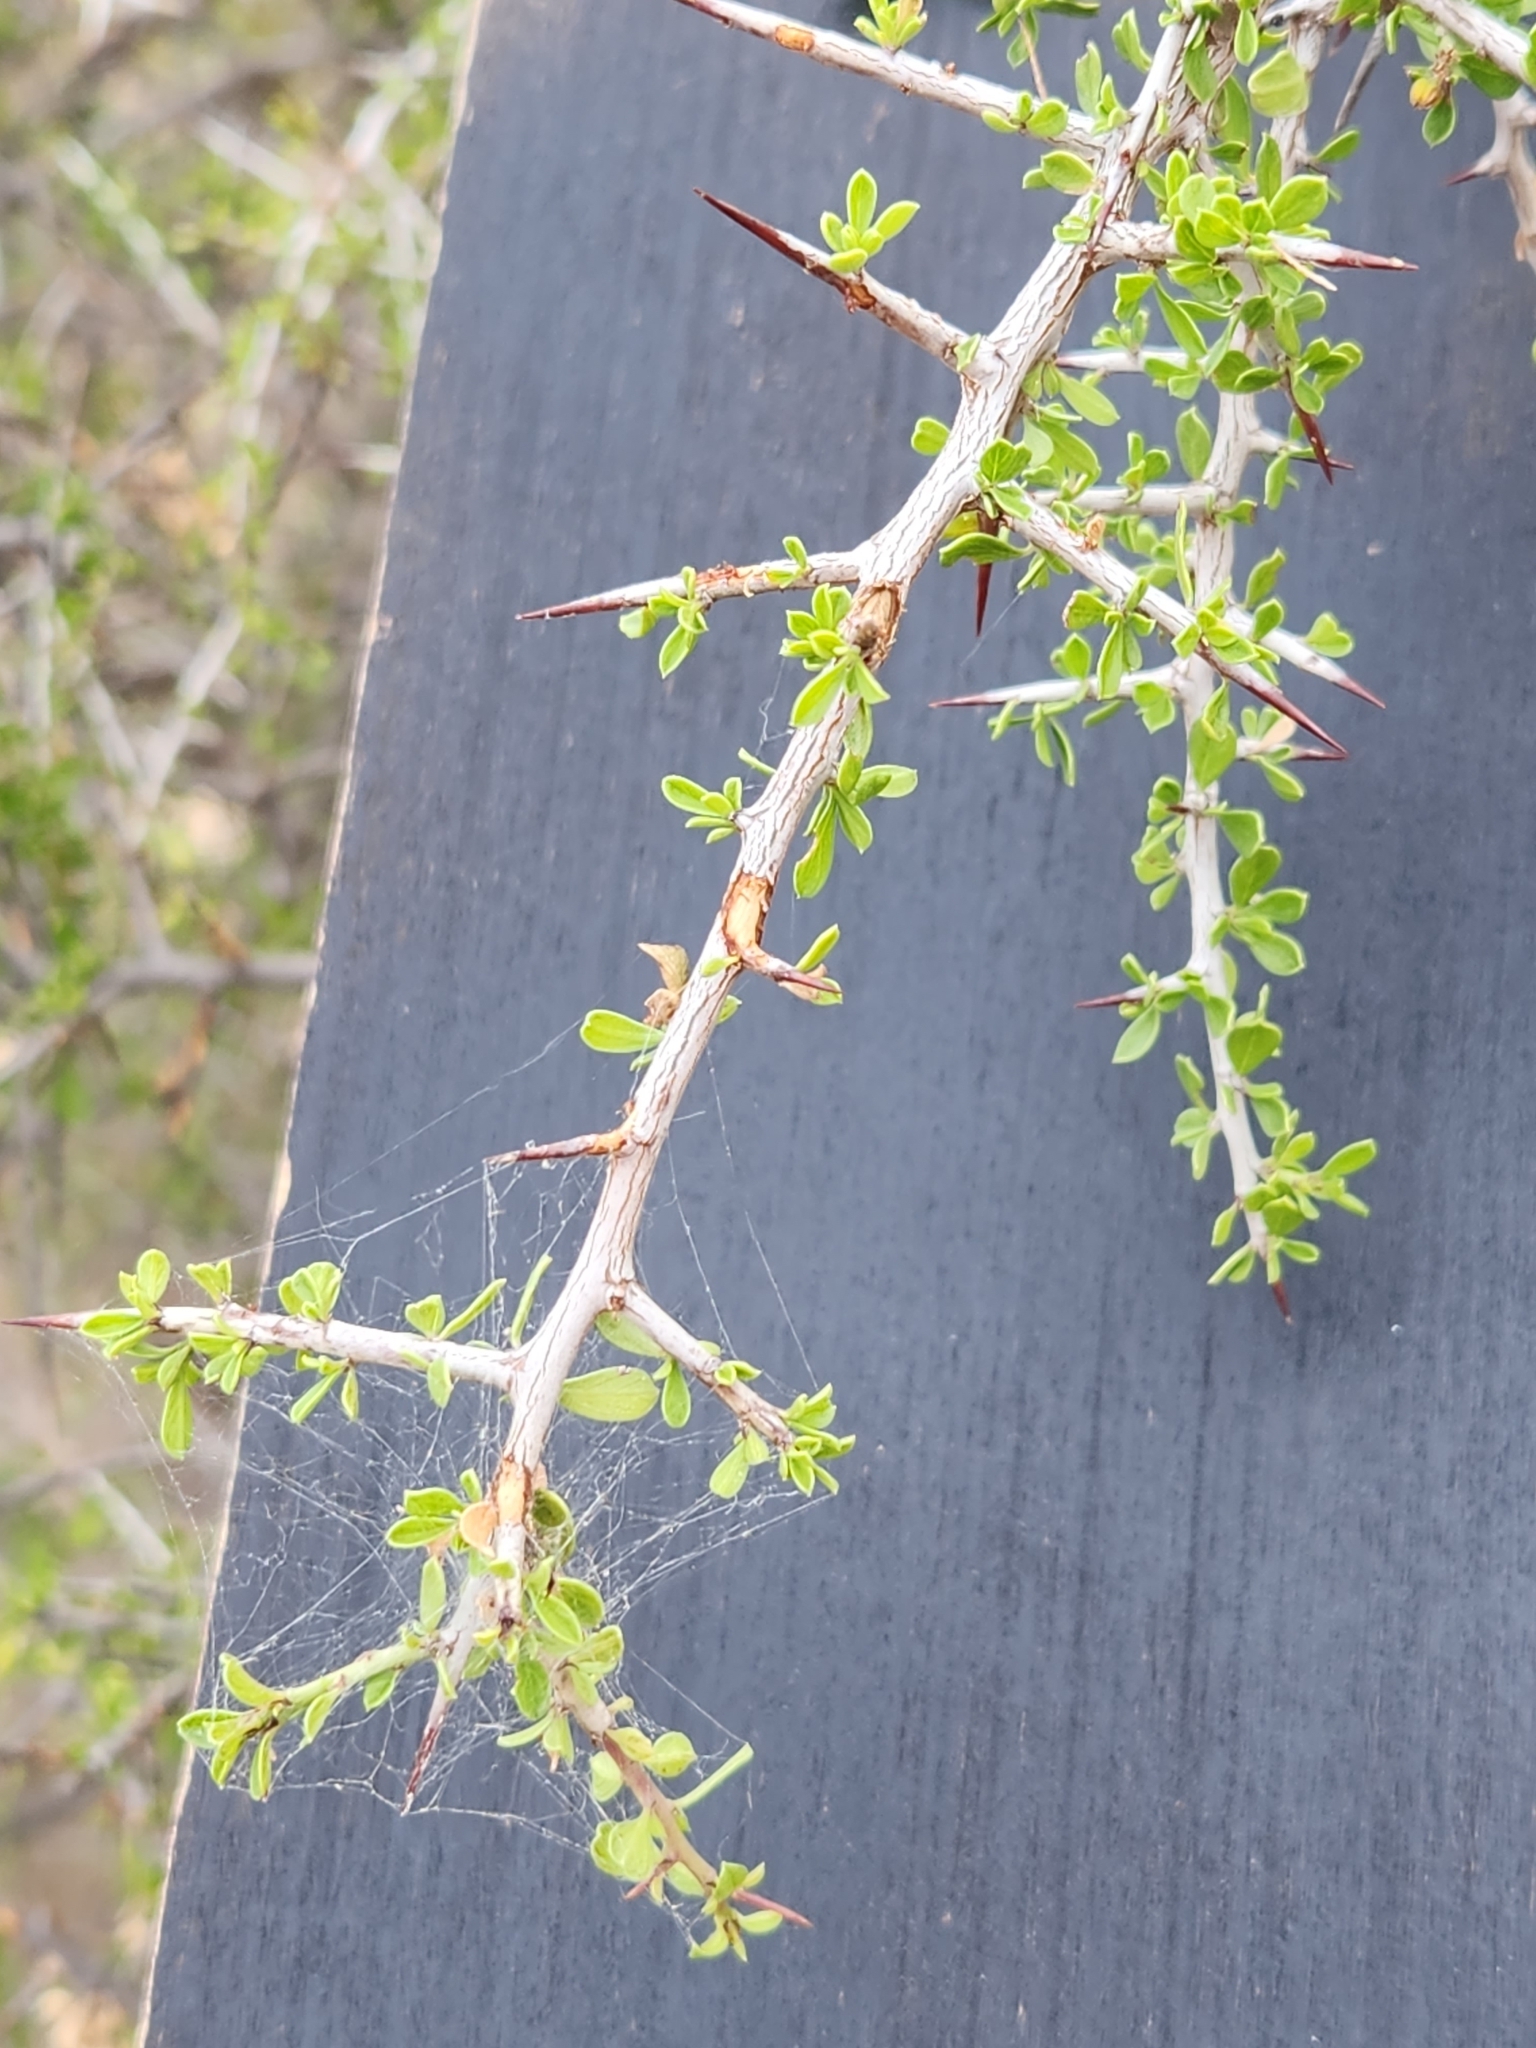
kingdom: Plantae
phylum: Tracheophyta
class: Magnoliopsida
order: Rosales
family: Rhamnaceae
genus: Condalia
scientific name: Condalia viridis
